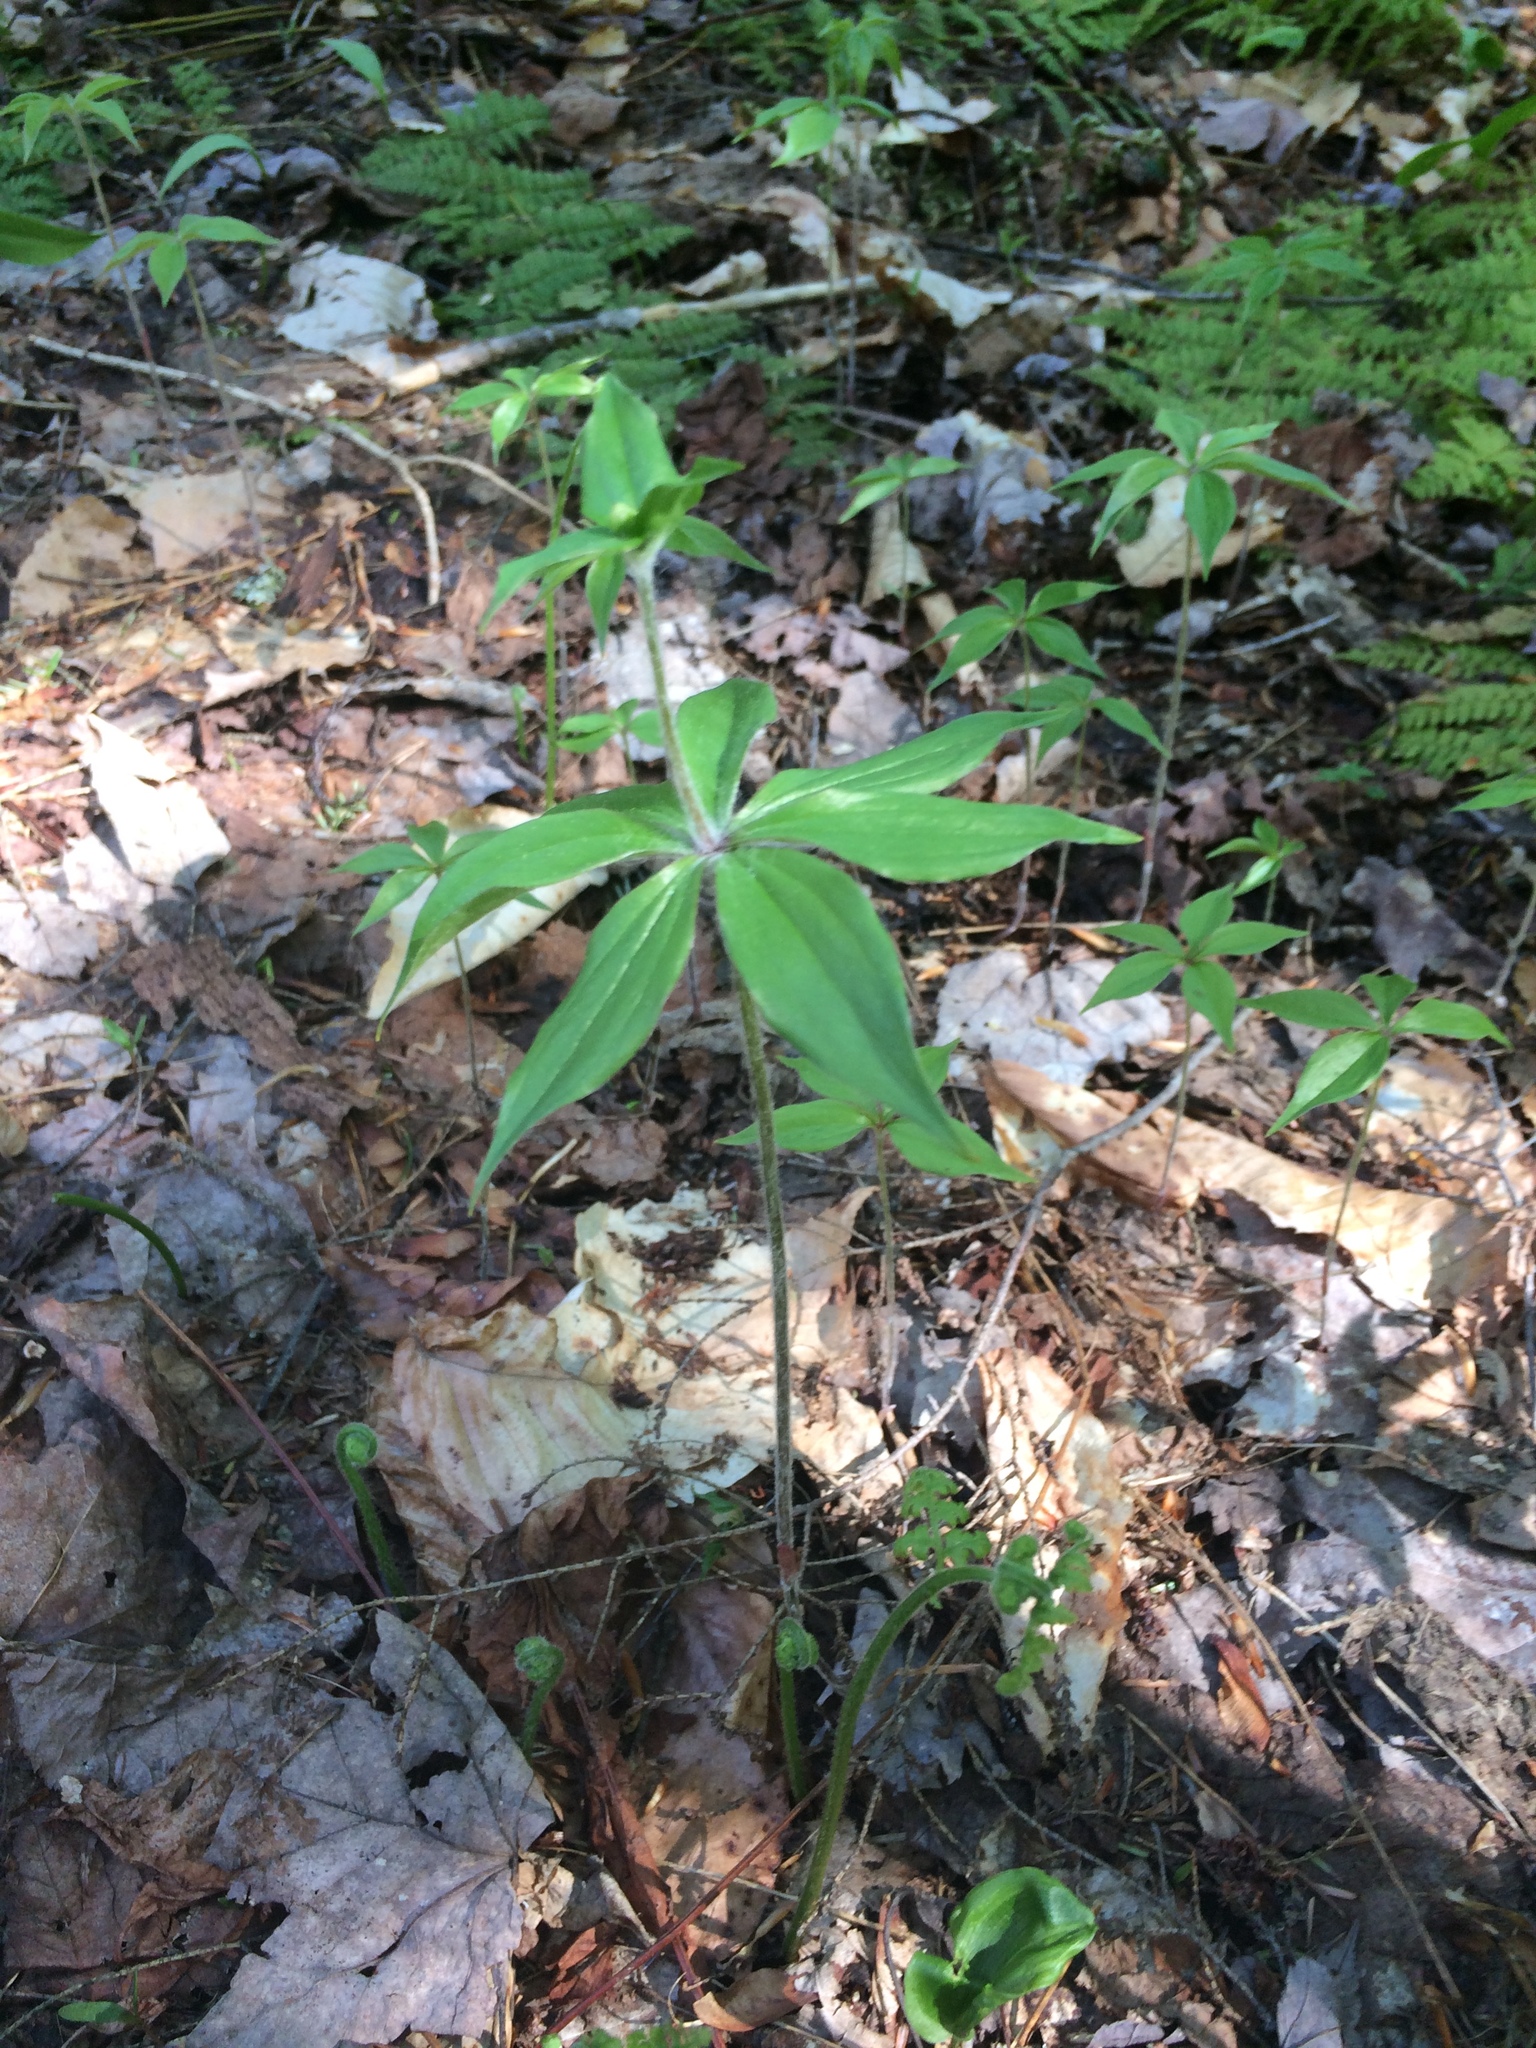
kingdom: Plantae
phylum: Tracheophyta
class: Liliopsida
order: Liliales
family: Liliaceae
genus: Medeola
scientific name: Medeola virginiana
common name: Indian cucumber-root
